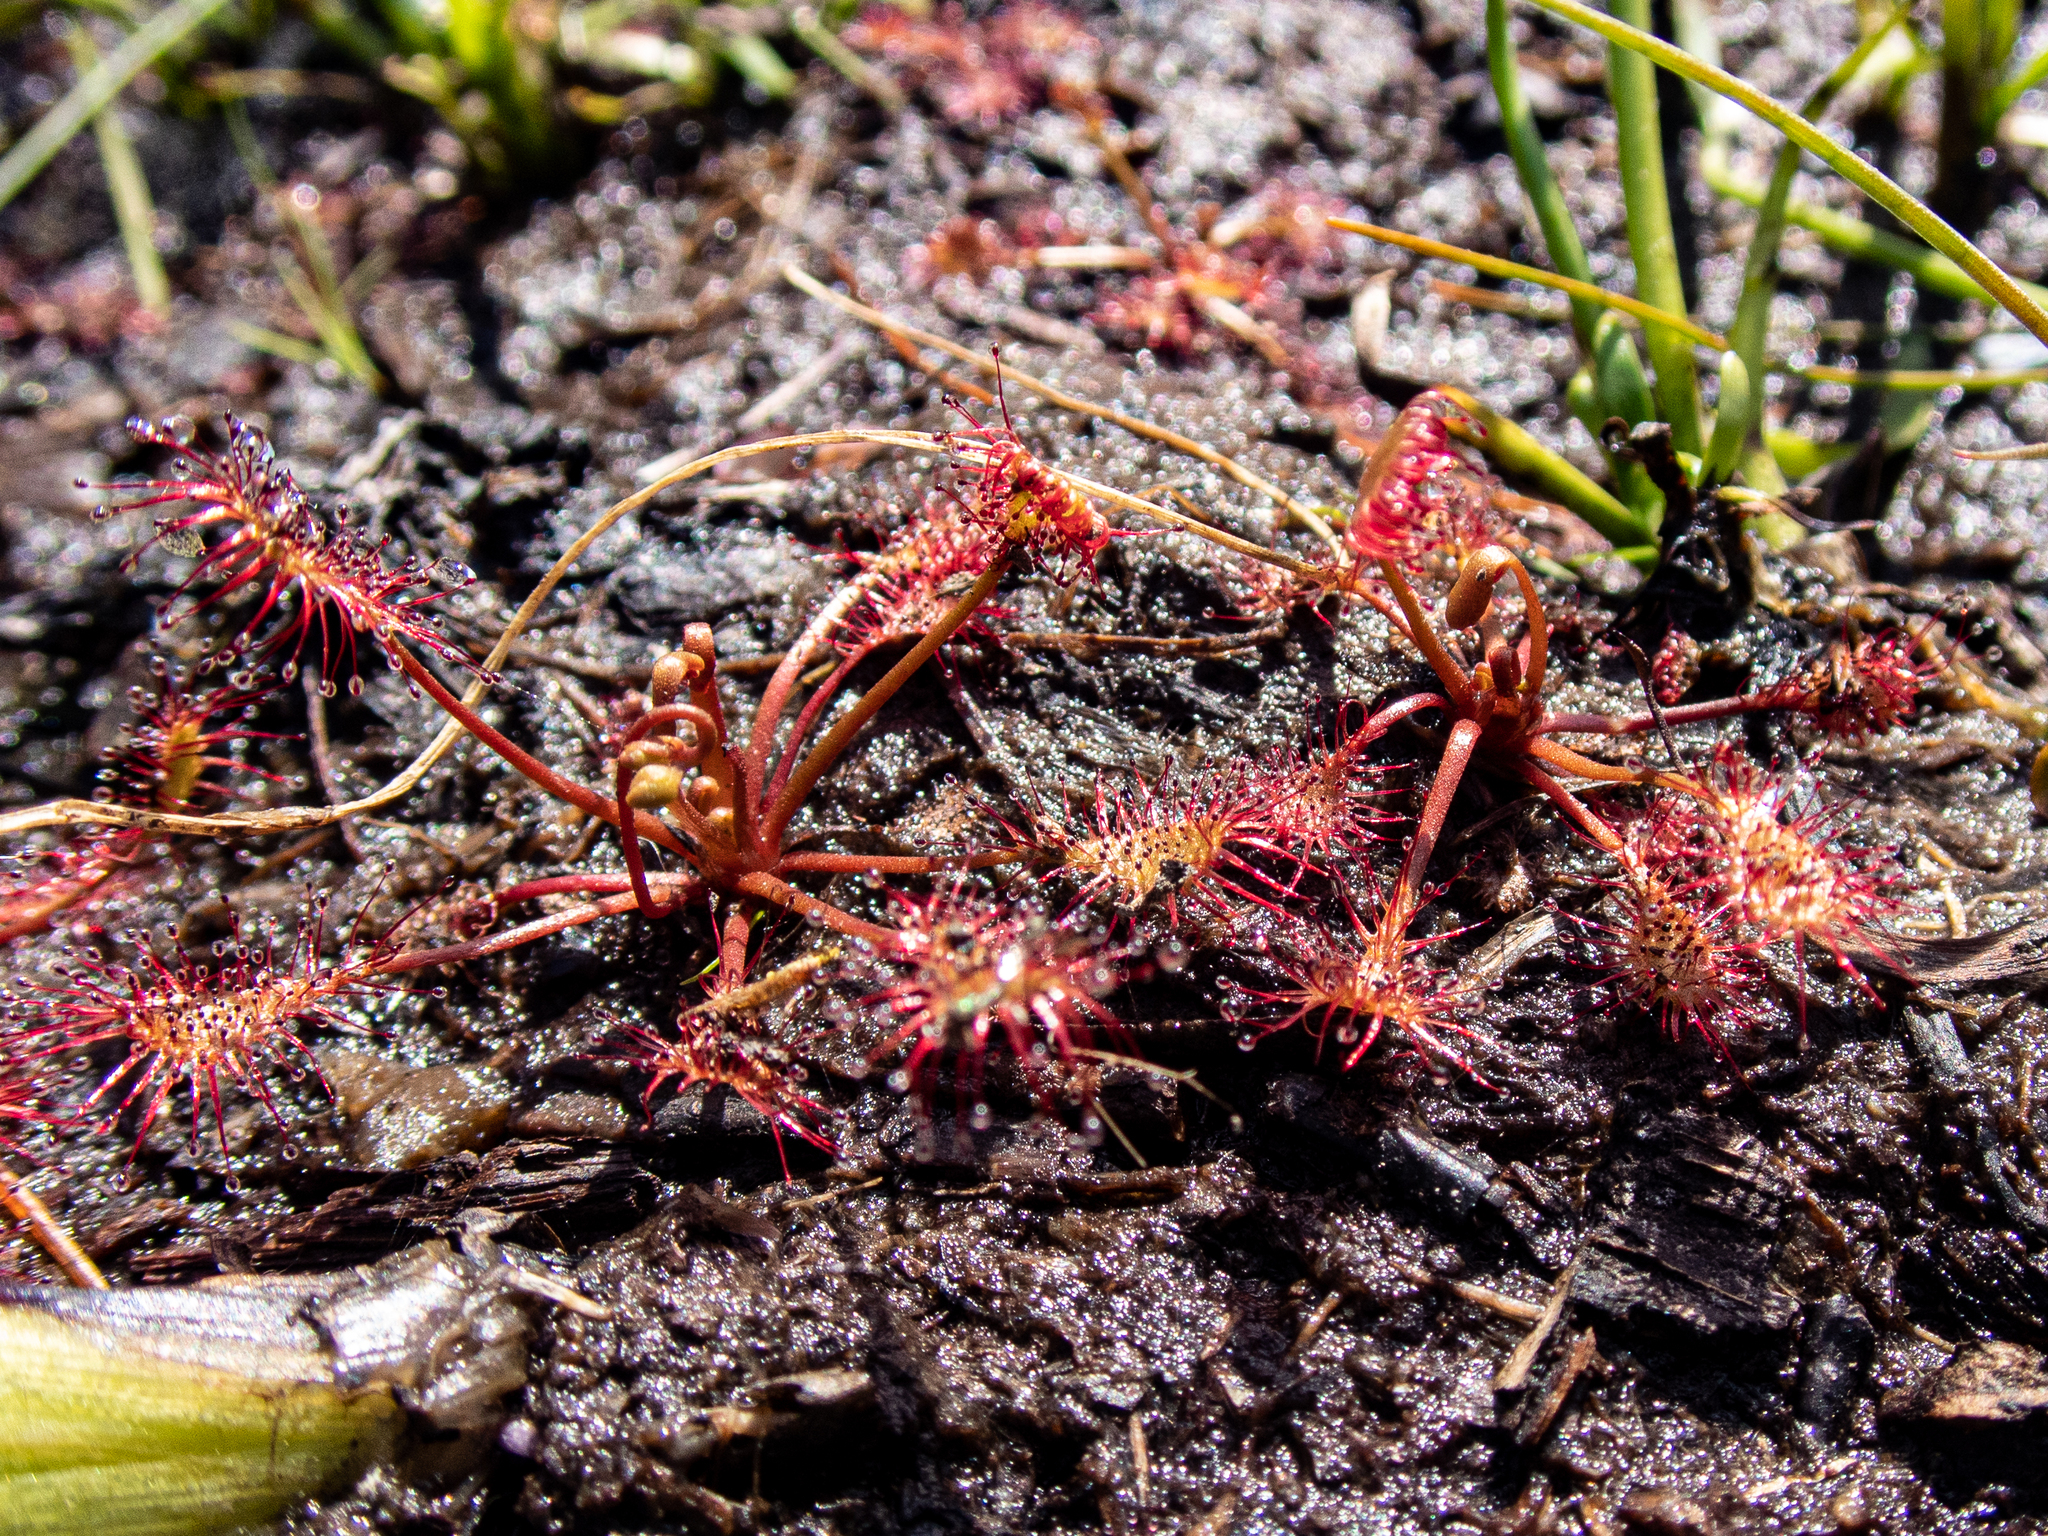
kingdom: Plantae
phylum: Tracheophyta
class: Magnoliopsida
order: Caryophyllales
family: Droseraceae
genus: Drosera
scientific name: Drosera intermedia
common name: Oblong-leaved sundew
